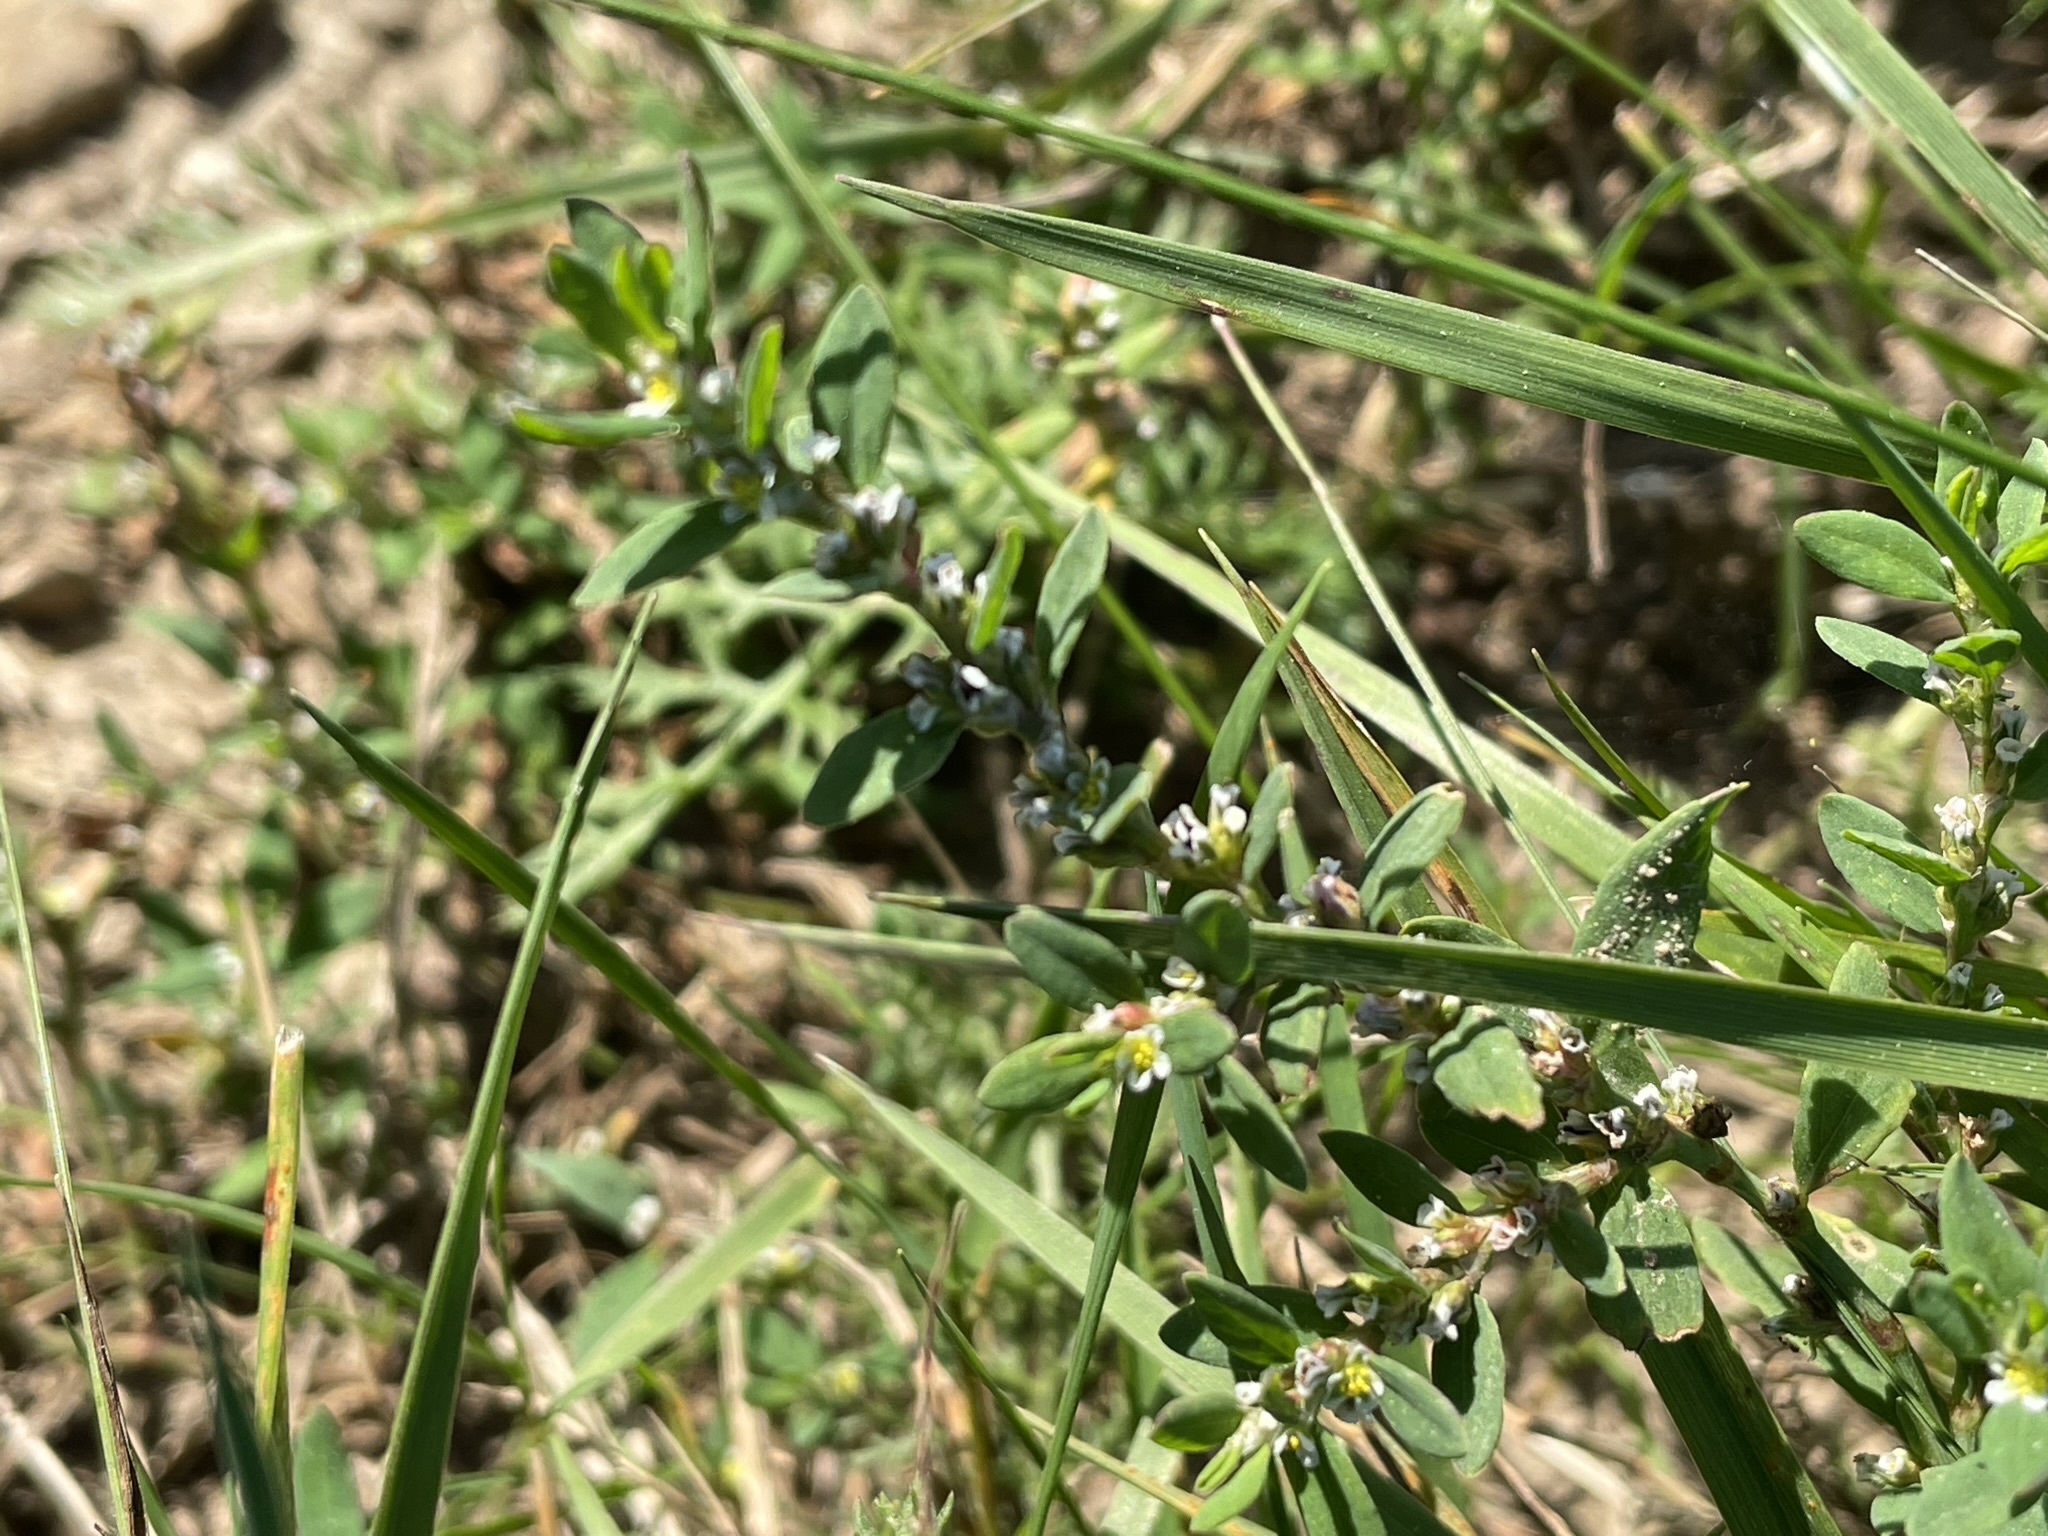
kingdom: Plantae
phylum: Tracheophyta
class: Magnoliopsida
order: Caryophyllales
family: Polygonaceae
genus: Polygonum
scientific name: Polygonum aviculare
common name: Prostrate knotweed
